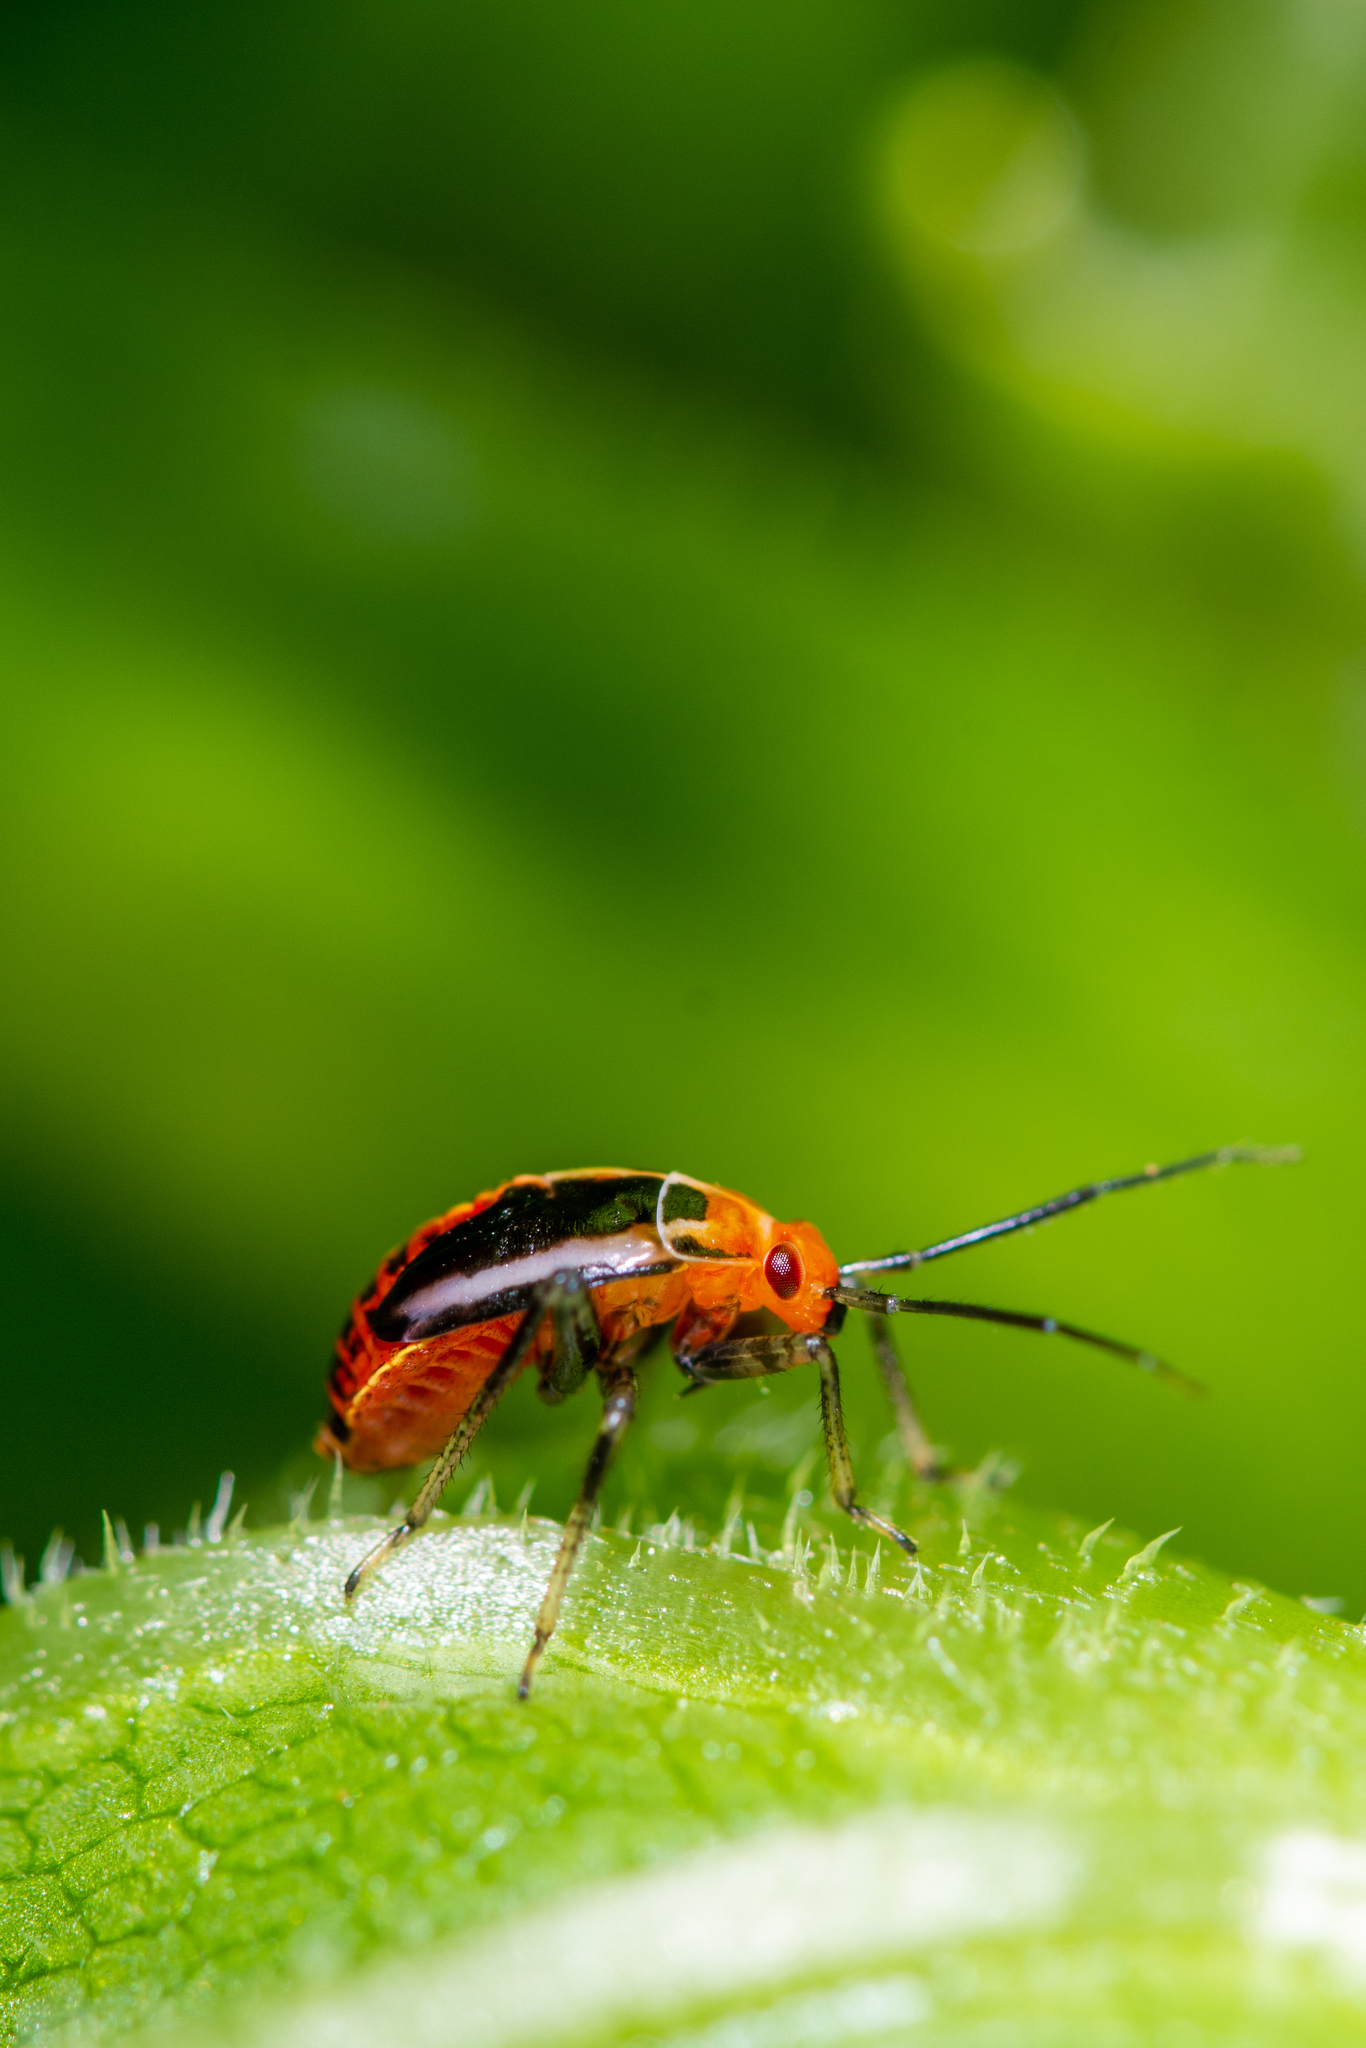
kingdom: Animalia
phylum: Arthropoda
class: Insecta
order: Hemiptera
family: Miridae
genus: Poecilocapsus
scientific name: Poecilocapsus lineatus
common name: Four-lined plant bug
